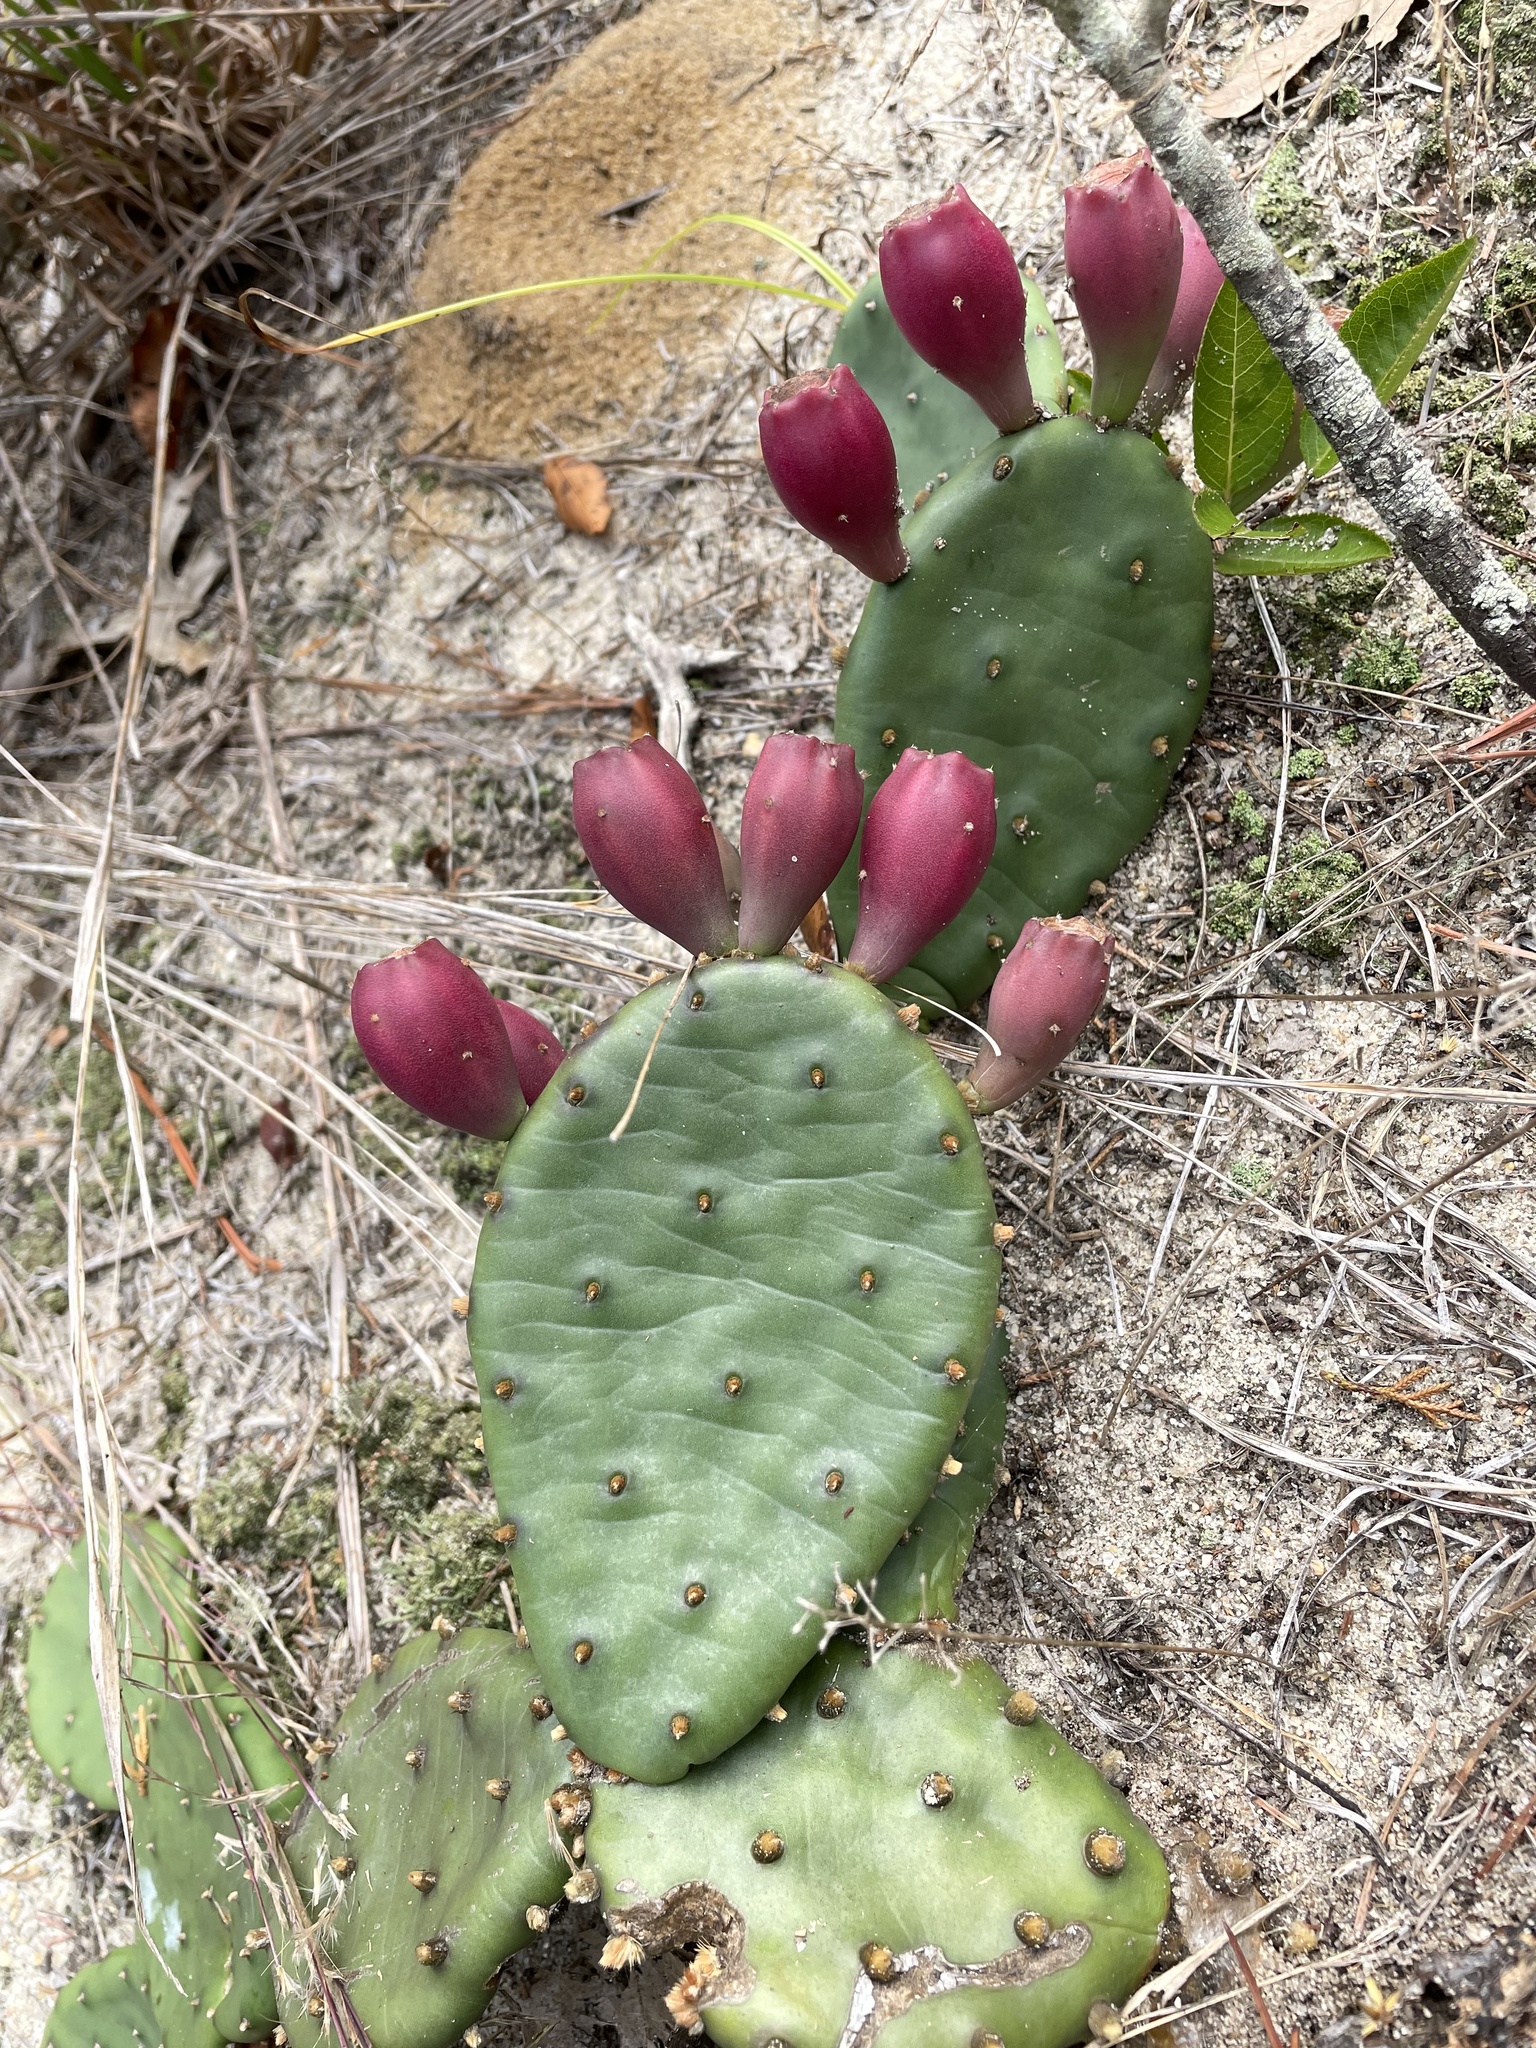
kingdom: Plantae
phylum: Tracheophyta
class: Magnoliopsida
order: Caryophyllales
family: Cactaceae
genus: Opuntia
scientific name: Opuntia humifusa
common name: Eastern prickly-pear
